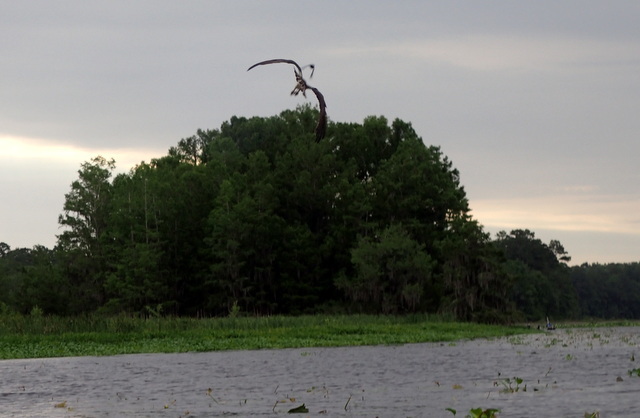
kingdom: Animalia
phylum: Chordata
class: Aves
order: Accipitriformes
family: Pandionidae
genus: Pandion
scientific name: Pandion haliaetus
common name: Osprey
